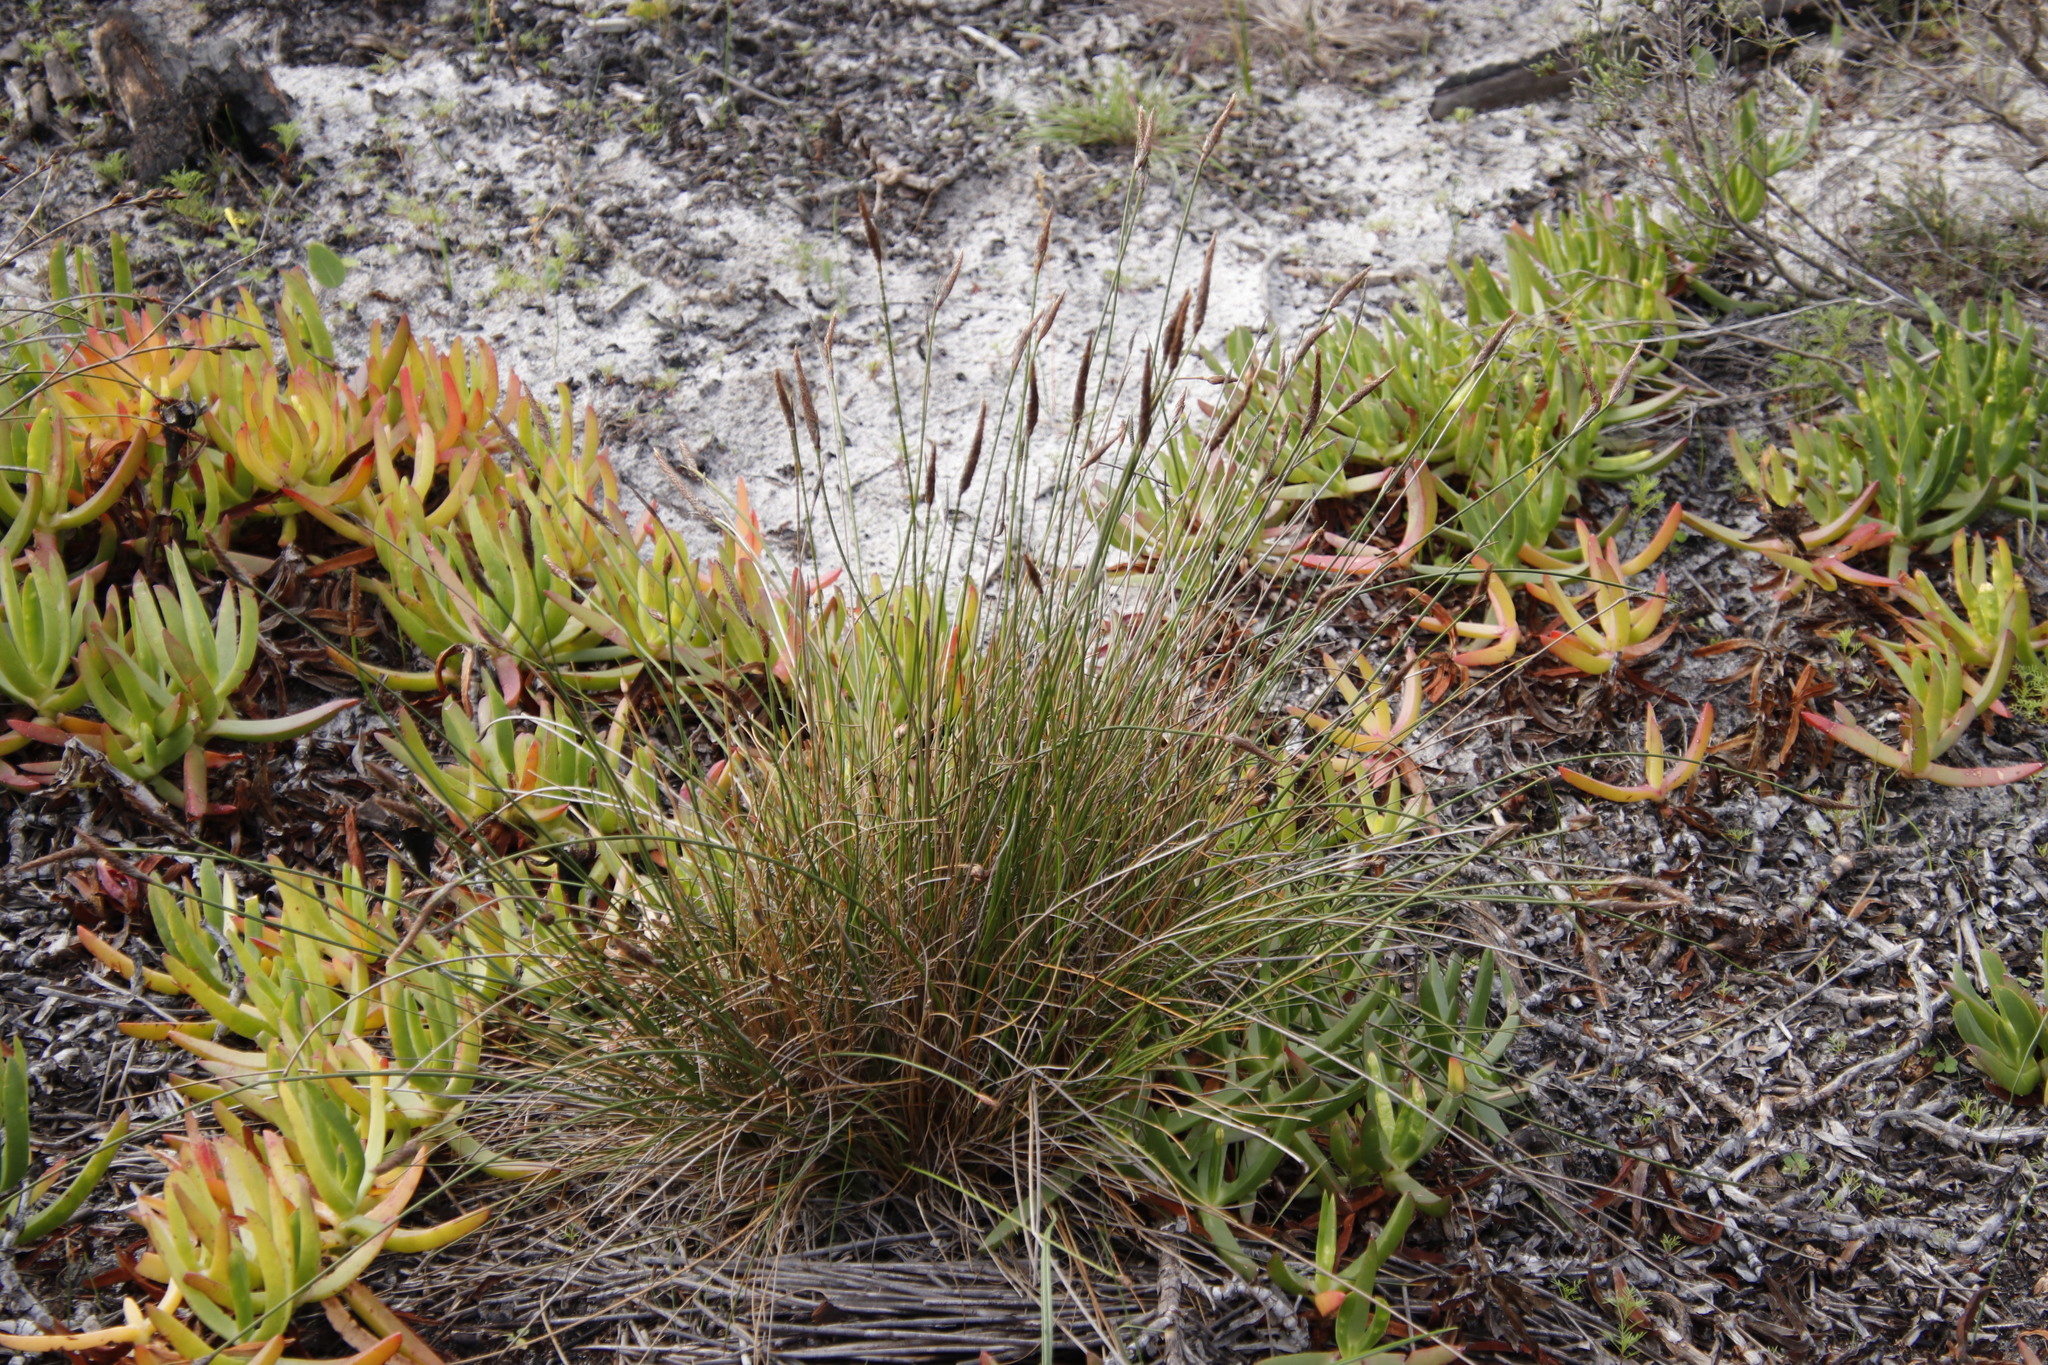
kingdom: Plantae
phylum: Tracheophyta
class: Liliopsida
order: Poales
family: Cyperaceae
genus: Ficinia
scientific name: Ficinia deusta
